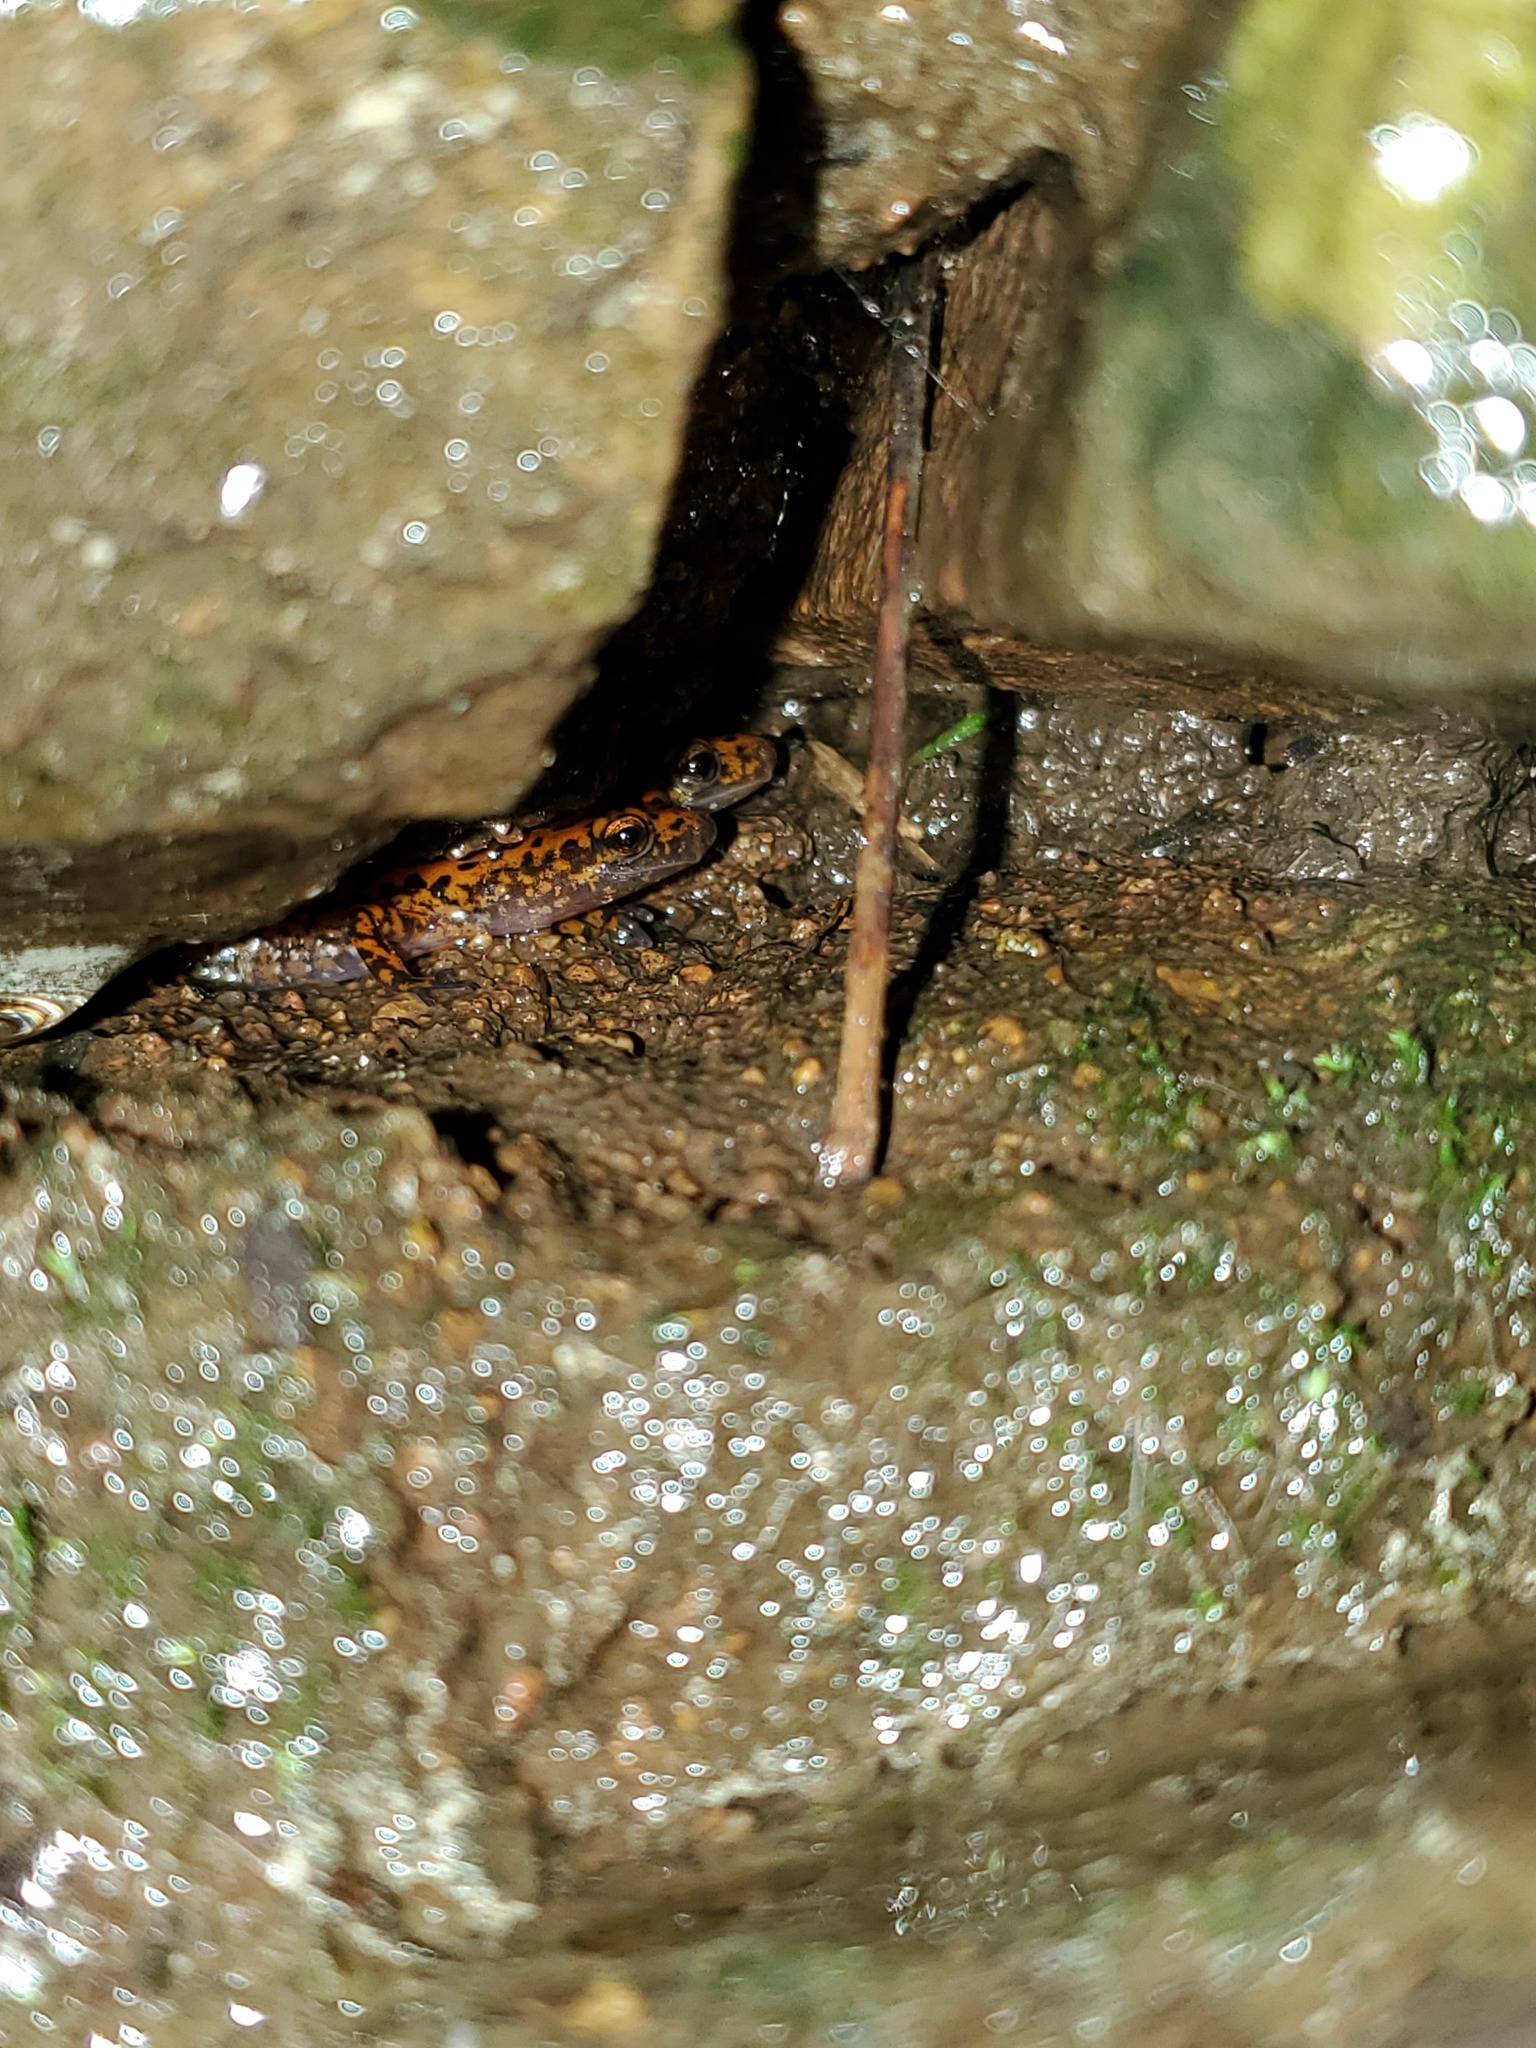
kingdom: Animalia
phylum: Chordata
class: Amphibia
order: Caudata
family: Plethodontidae
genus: Eurycea
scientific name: Eurycea lucifuga
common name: Cave salamander
